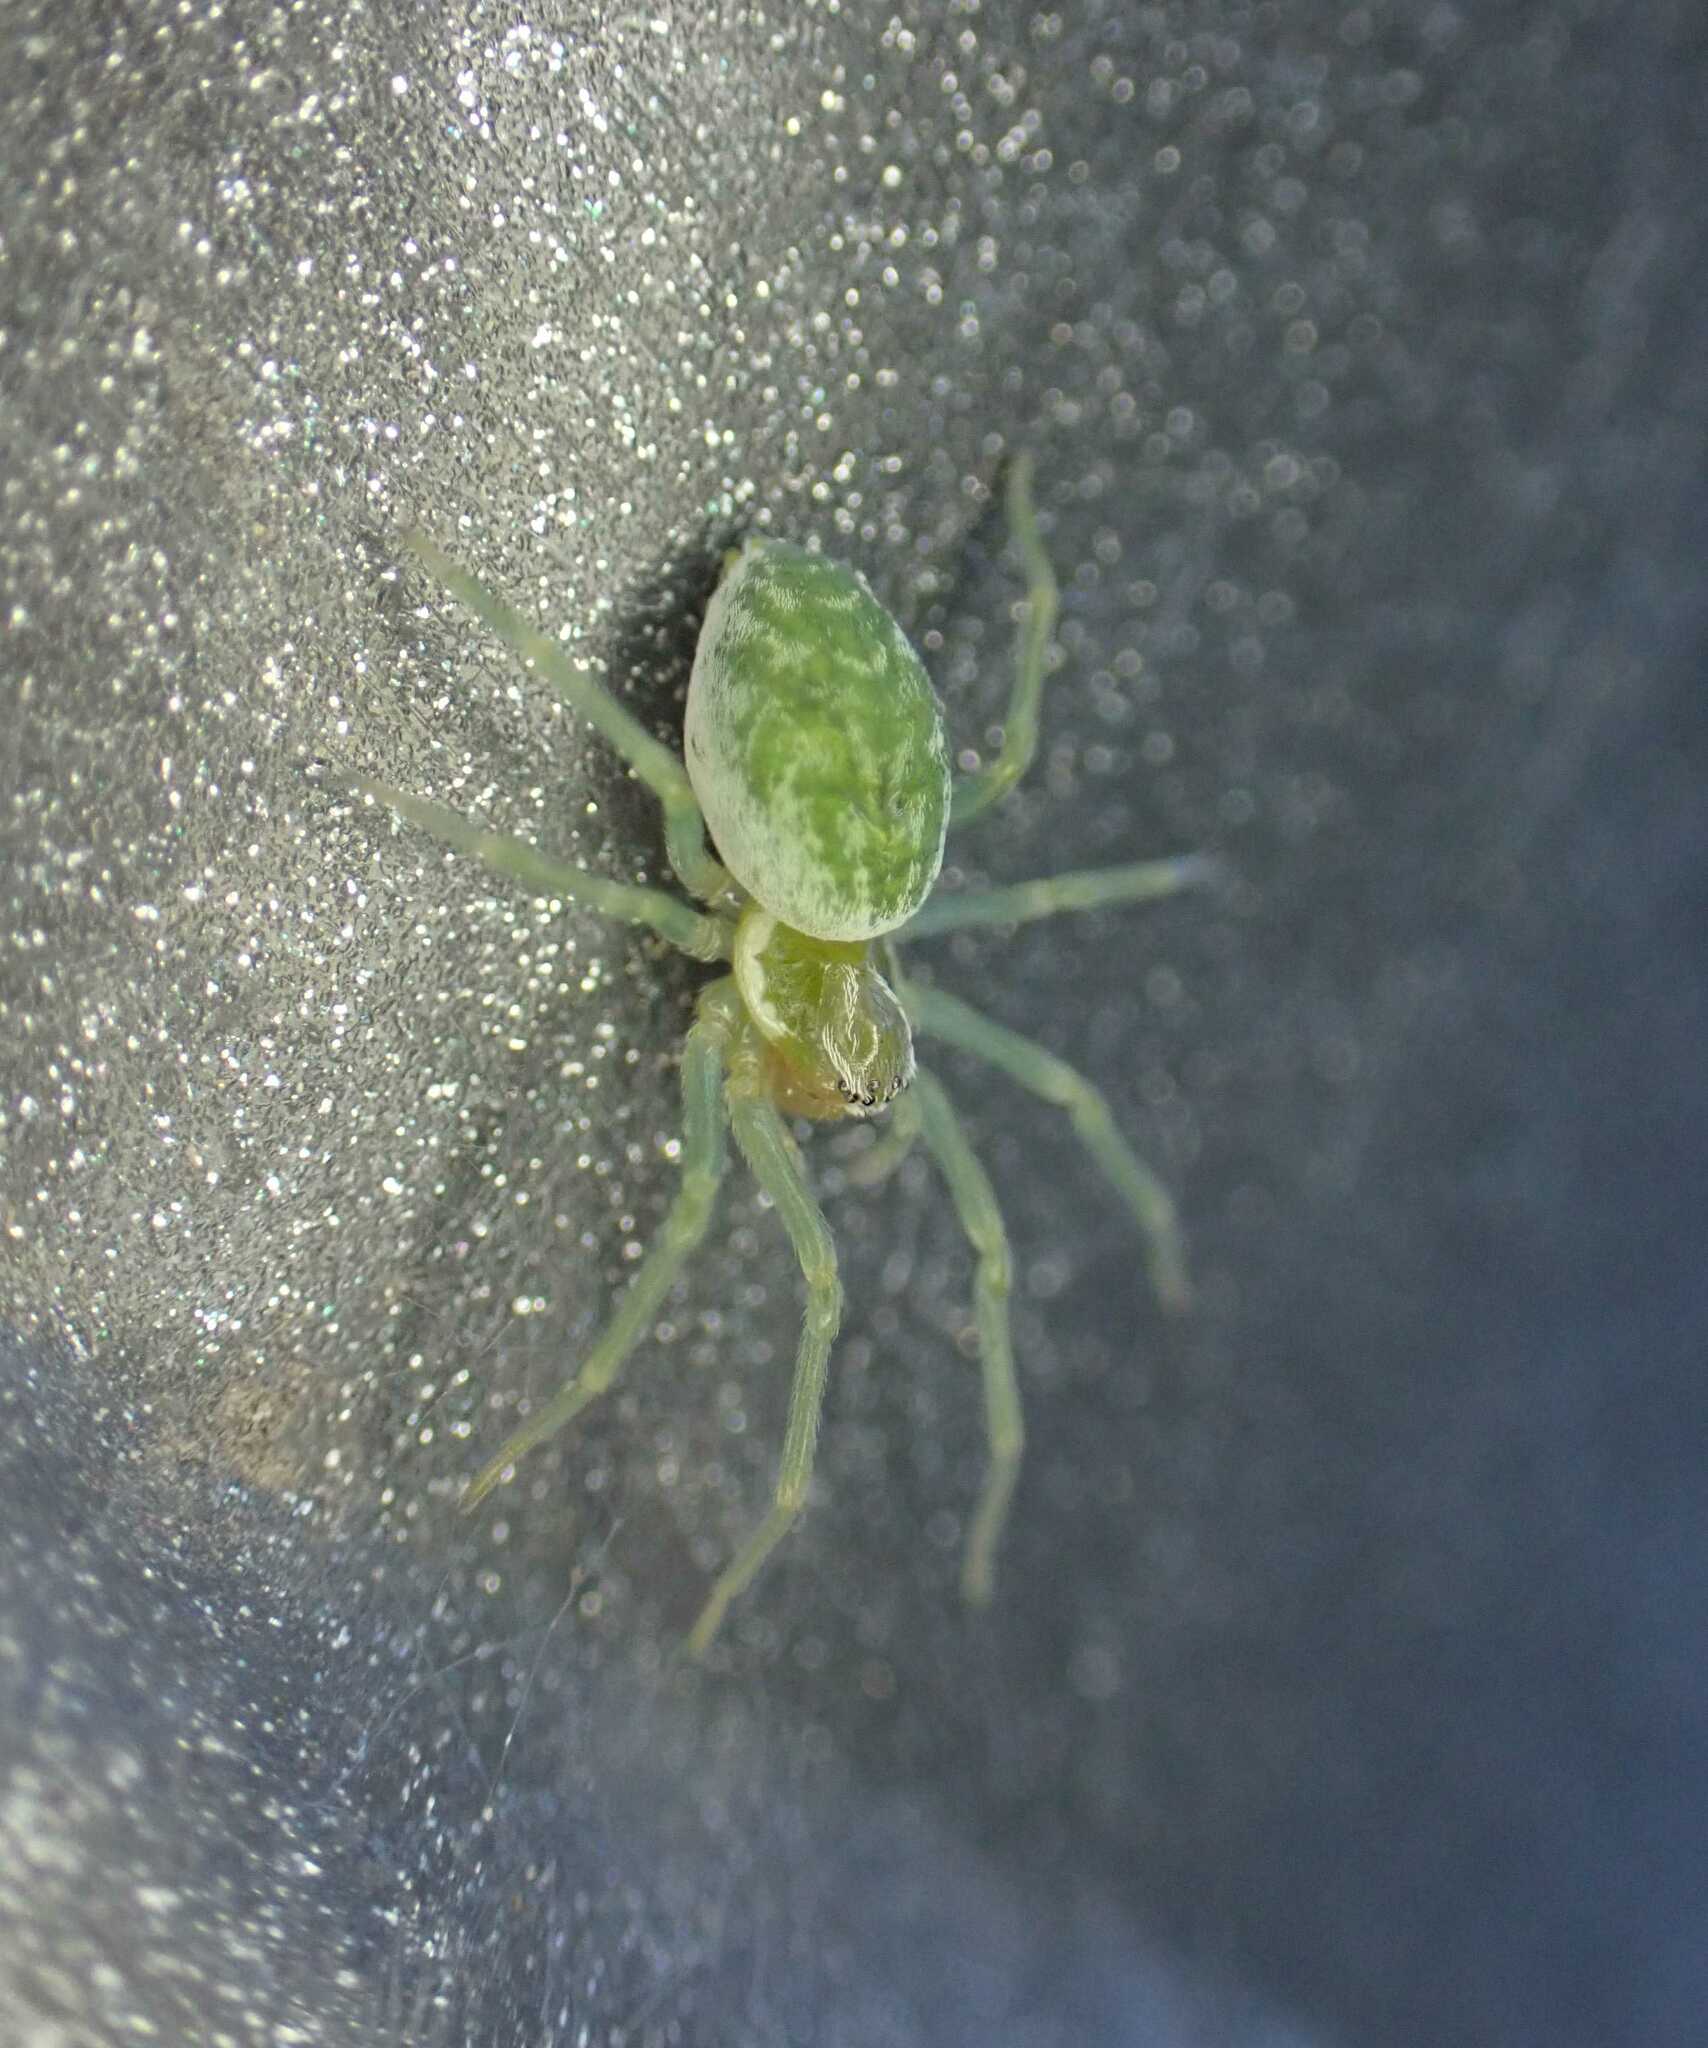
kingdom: Animalia
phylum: Arthropoda
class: Arachnida
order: Araneae
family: Dictynidae
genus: Nigma
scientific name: Nigma walckenaeri
